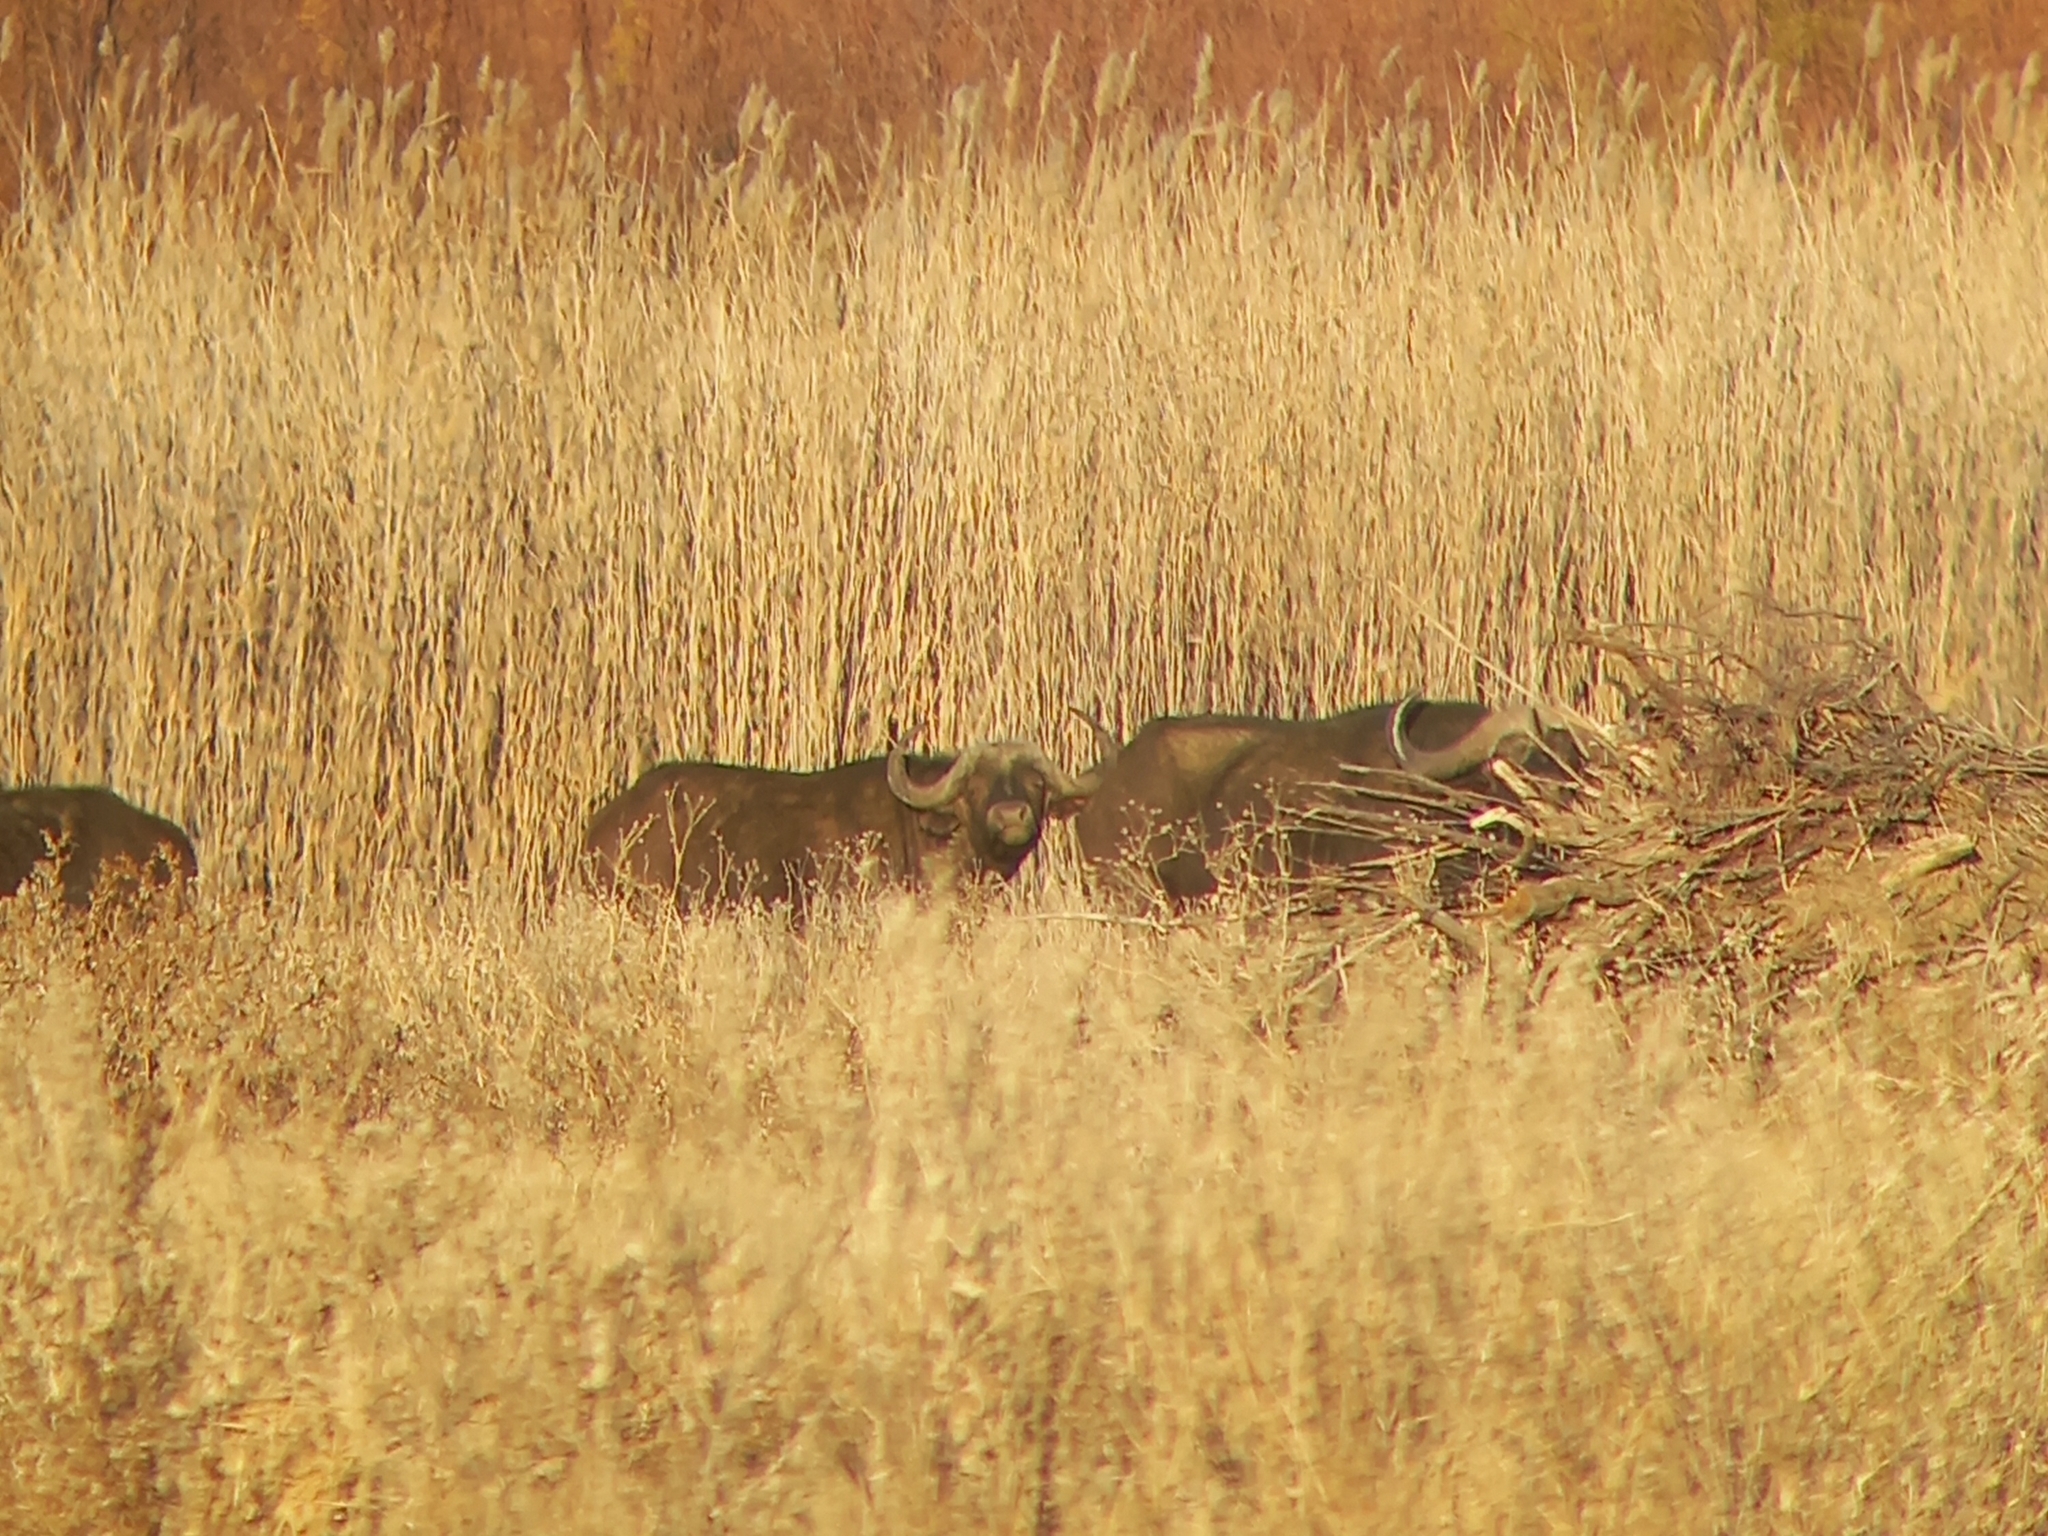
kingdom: Animalia
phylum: Chordata
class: Mammalia
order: Artiodactyla
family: Bovidae
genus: Syncerus
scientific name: Syncerus caffer
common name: African buffalo
